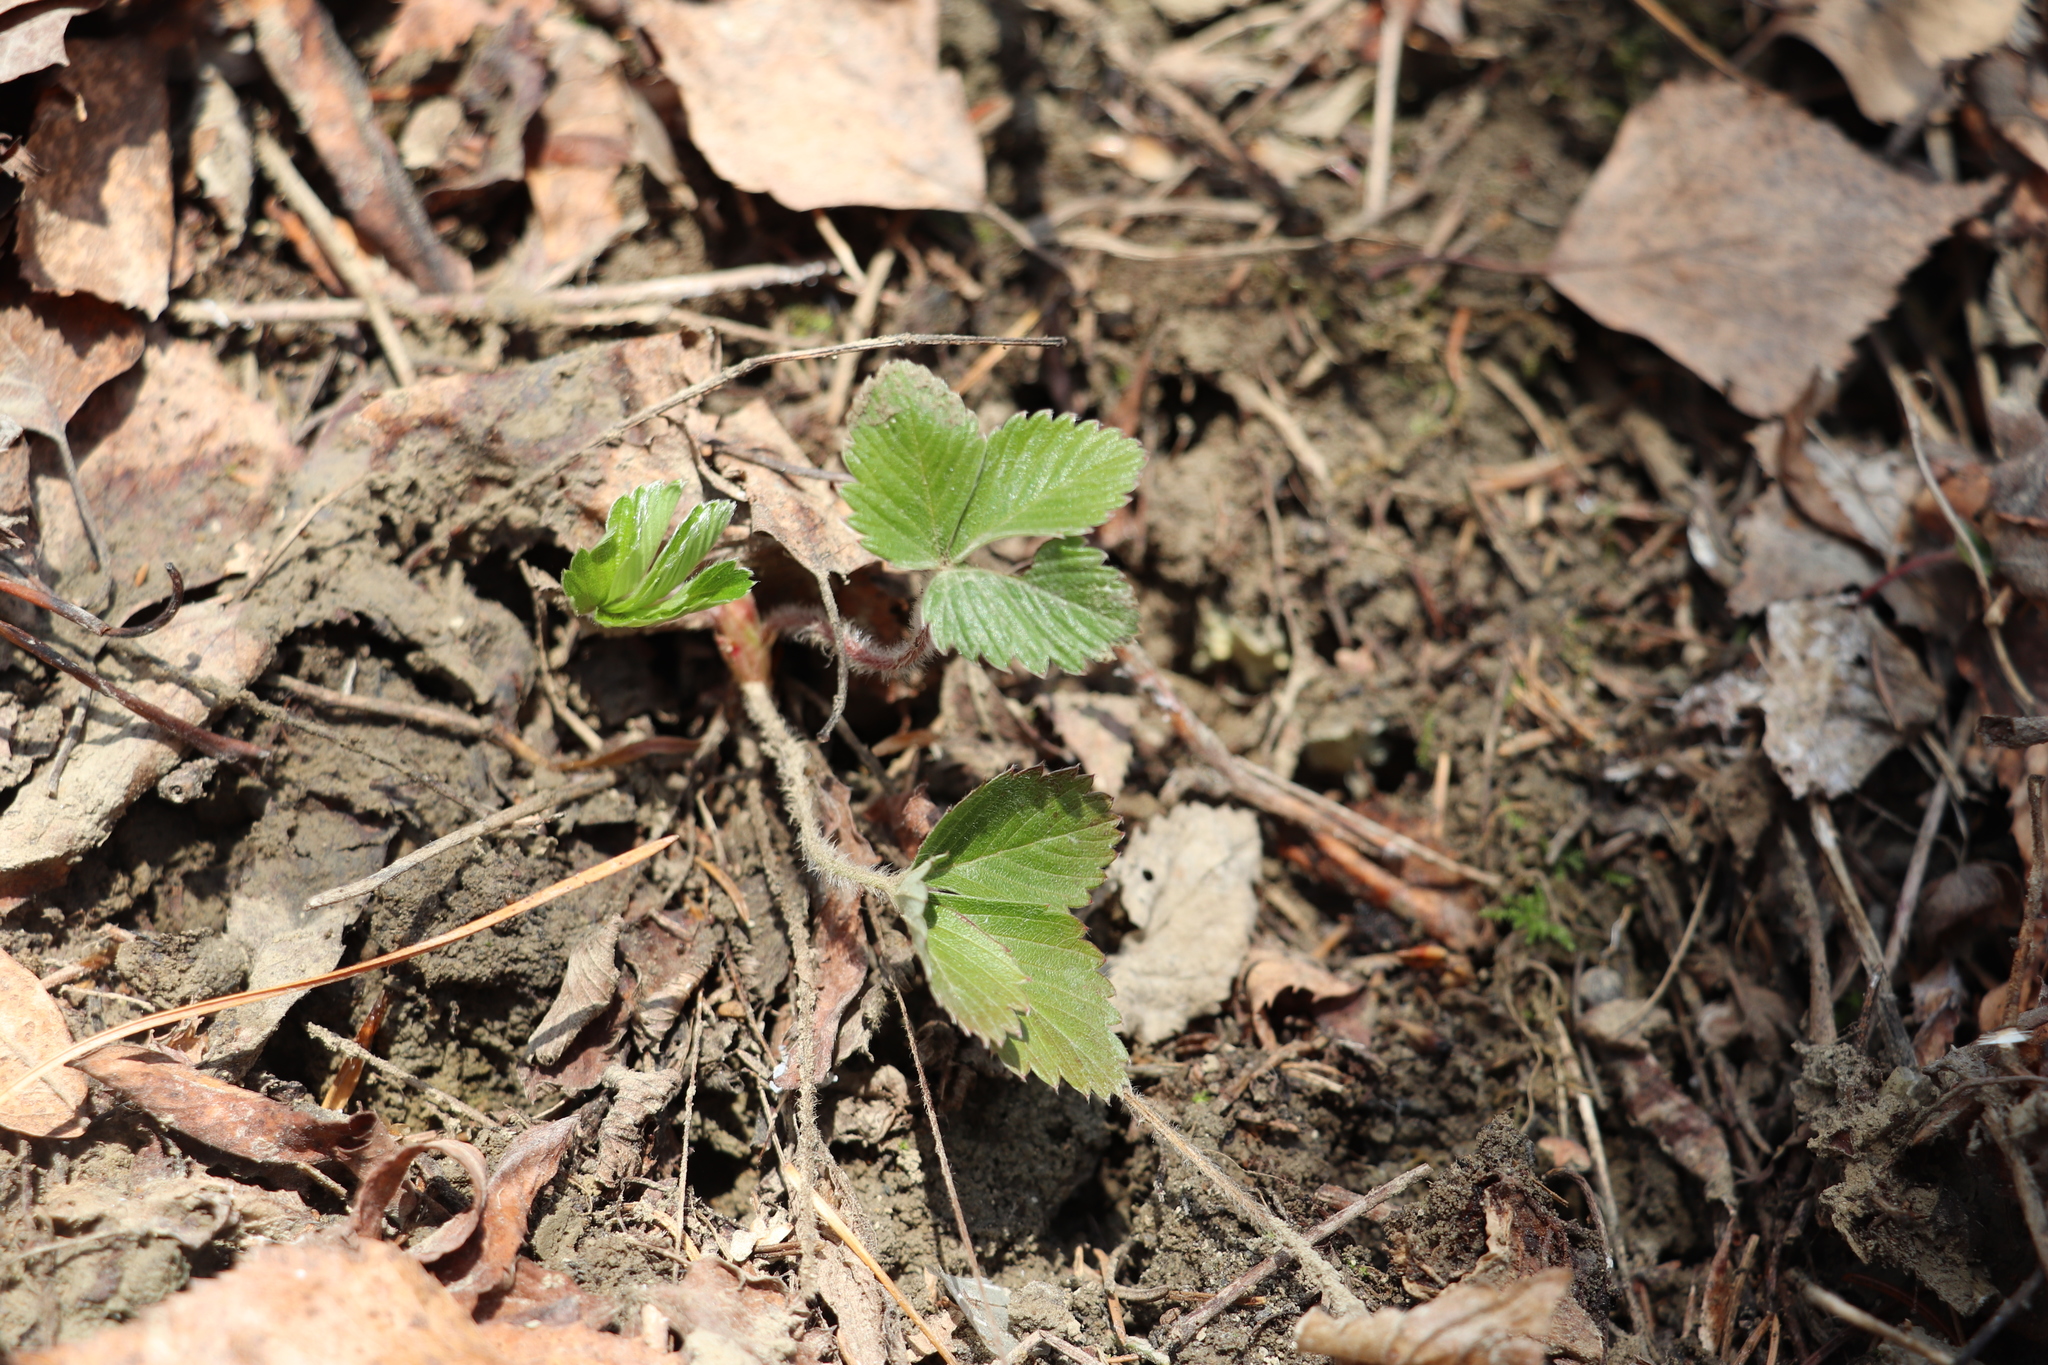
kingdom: Plantae
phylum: Tracheophyta
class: Magnoliopsida
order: Rosales
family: Rosaceae
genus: Fragaria
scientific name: Fragaria vesca
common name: Wild strawberry
